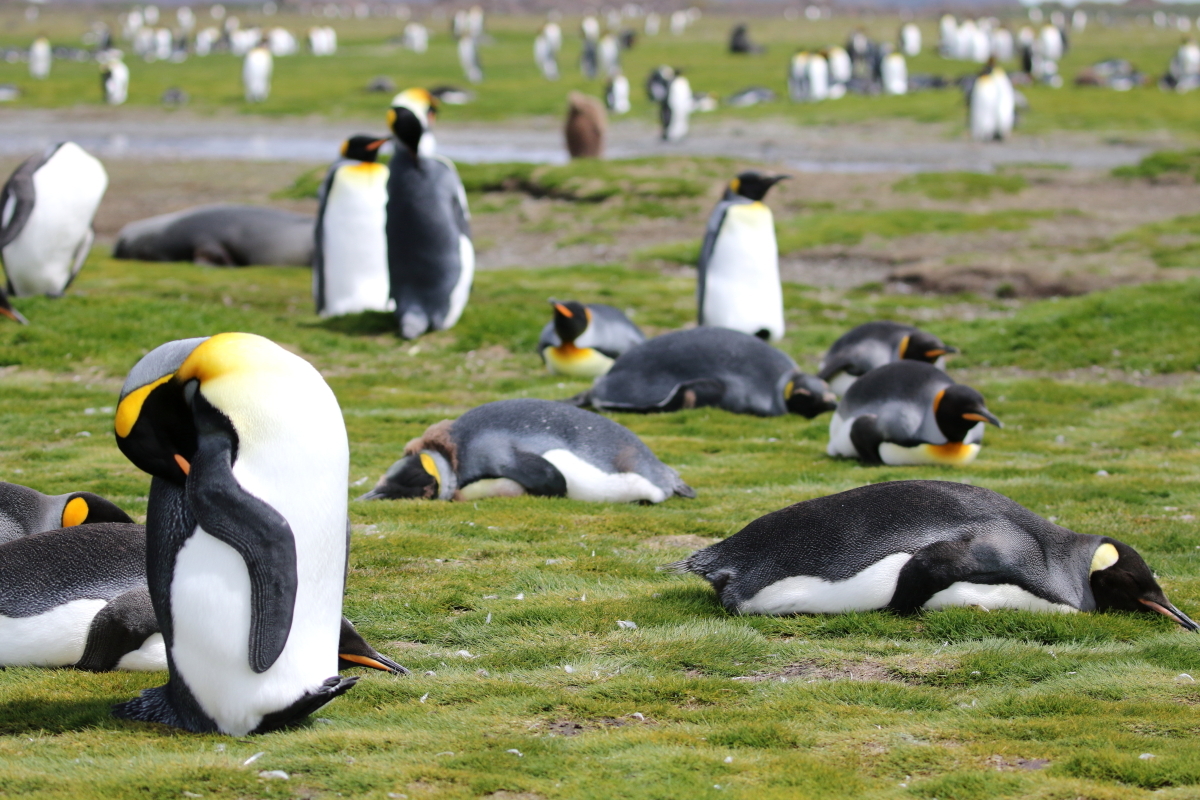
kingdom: Animalia
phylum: Chordata
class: Aves
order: Sphenisciformes
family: Spheniscidae
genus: Aptenodytes
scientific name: Aptenodytes patagonicus
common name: King penguin
